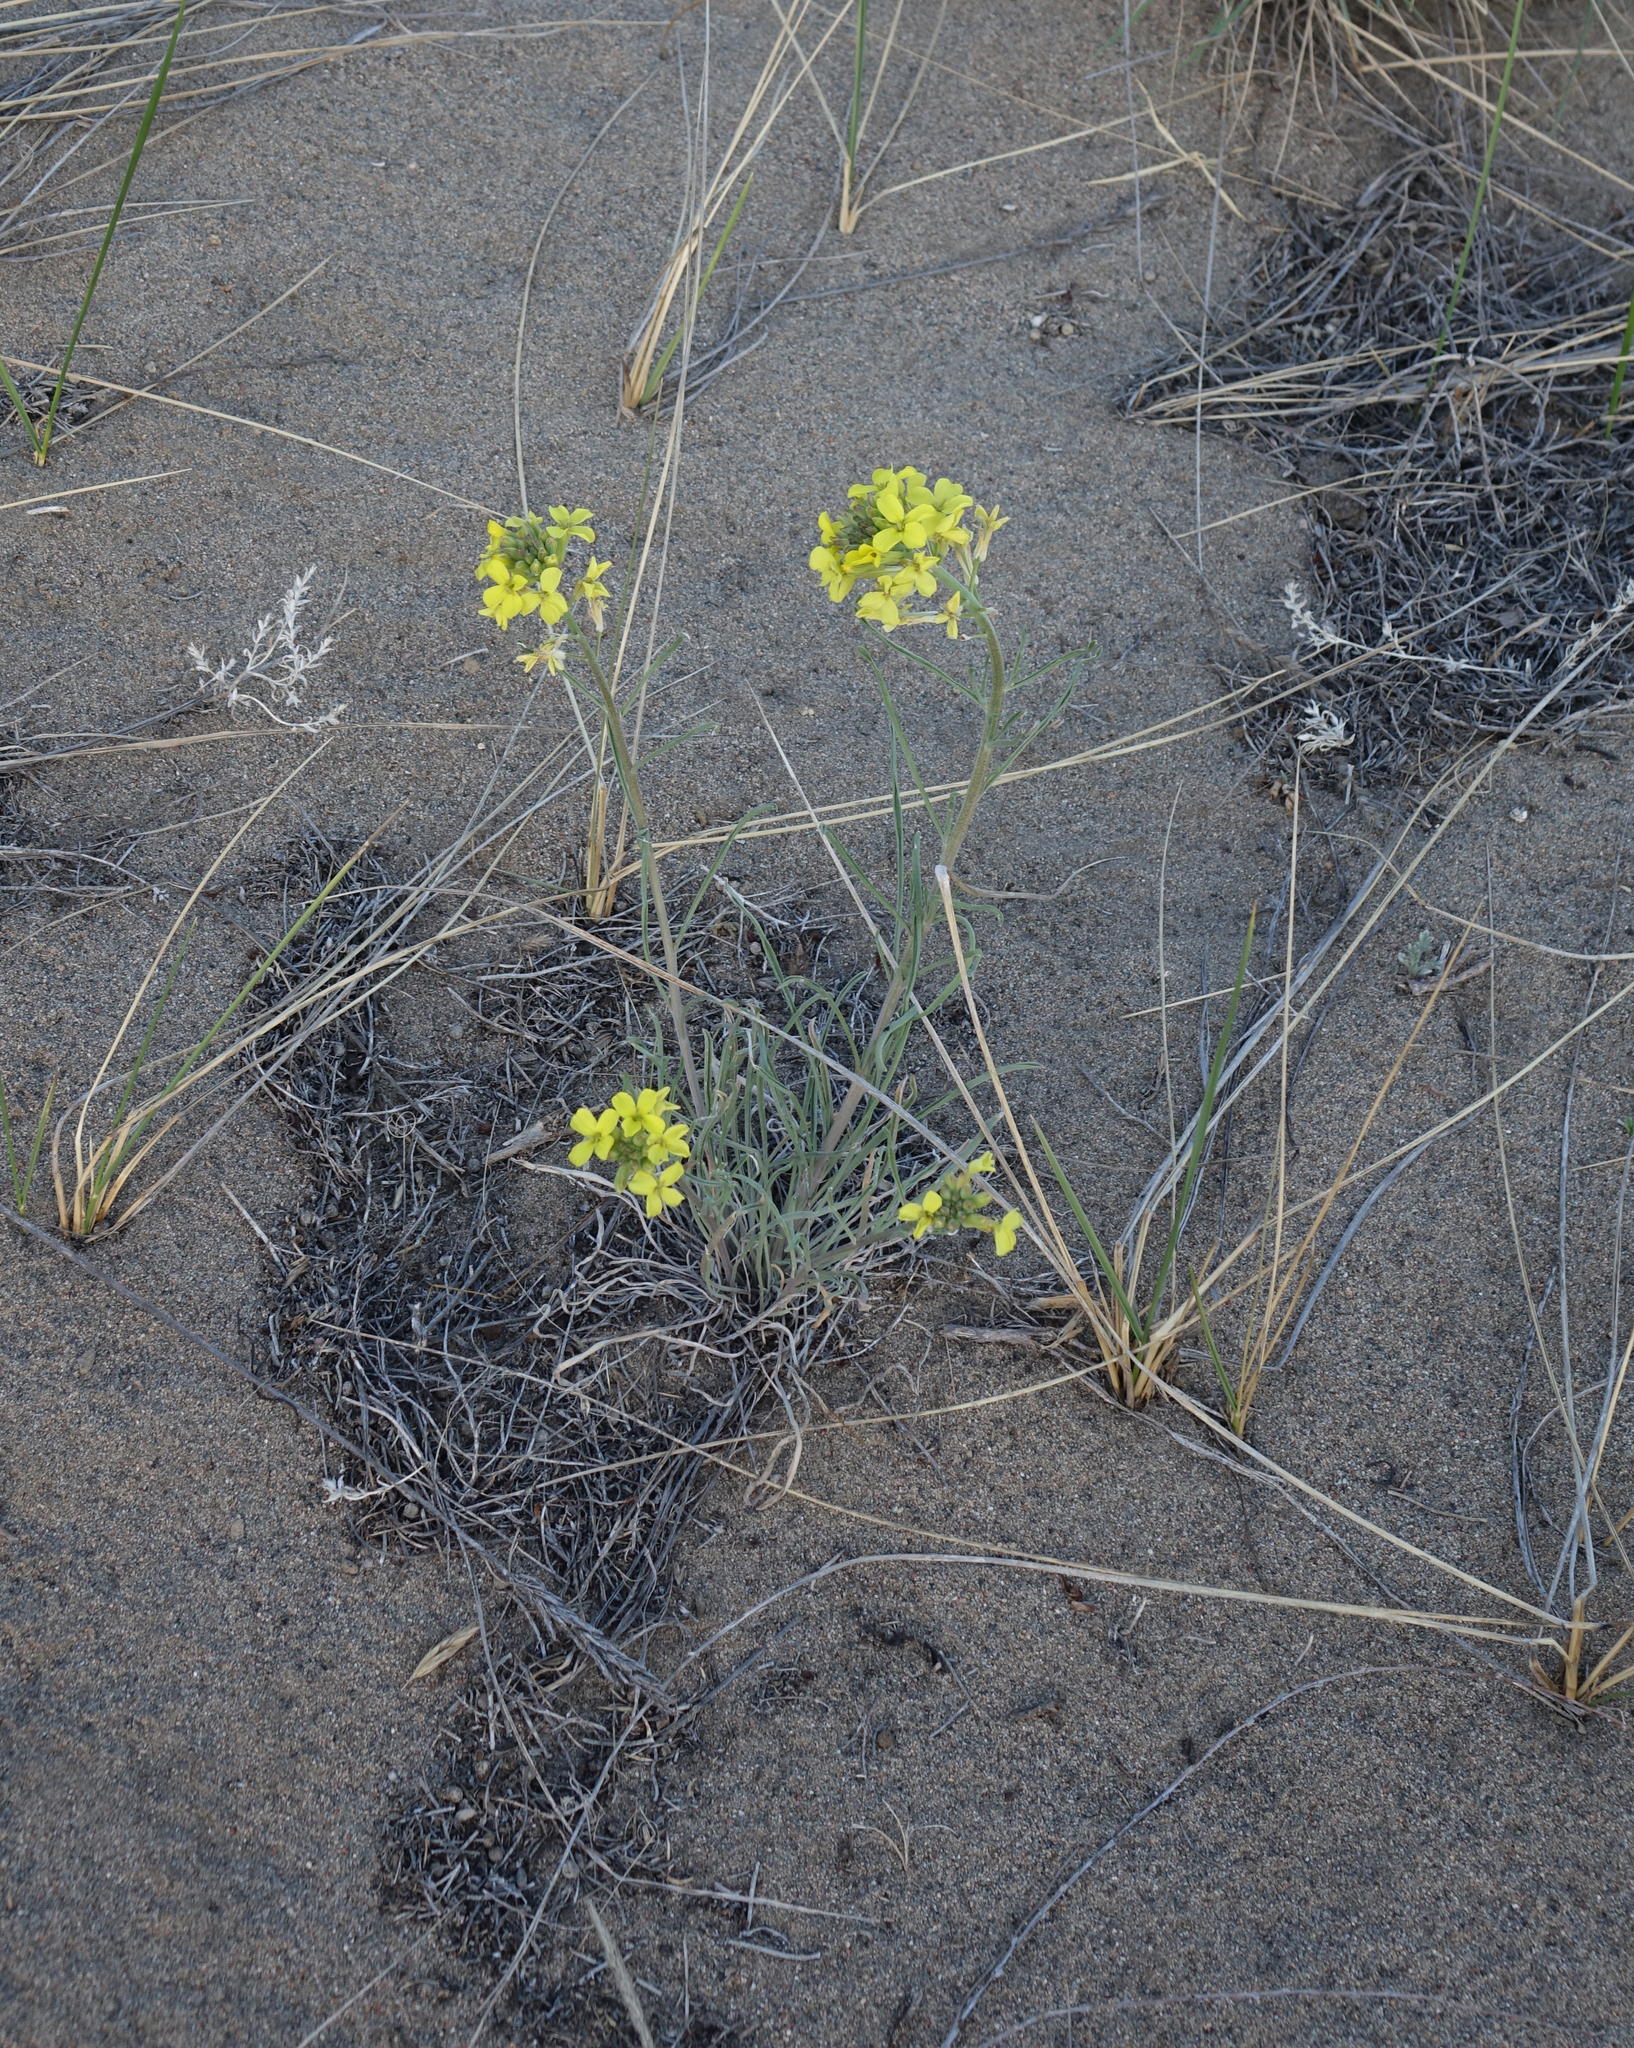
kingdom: Plantae
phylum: Tracheophyta
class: Magnoliopsida
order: Brassicales
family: Brassicaceae
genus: Erysimum
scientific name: Erysimum flavum
